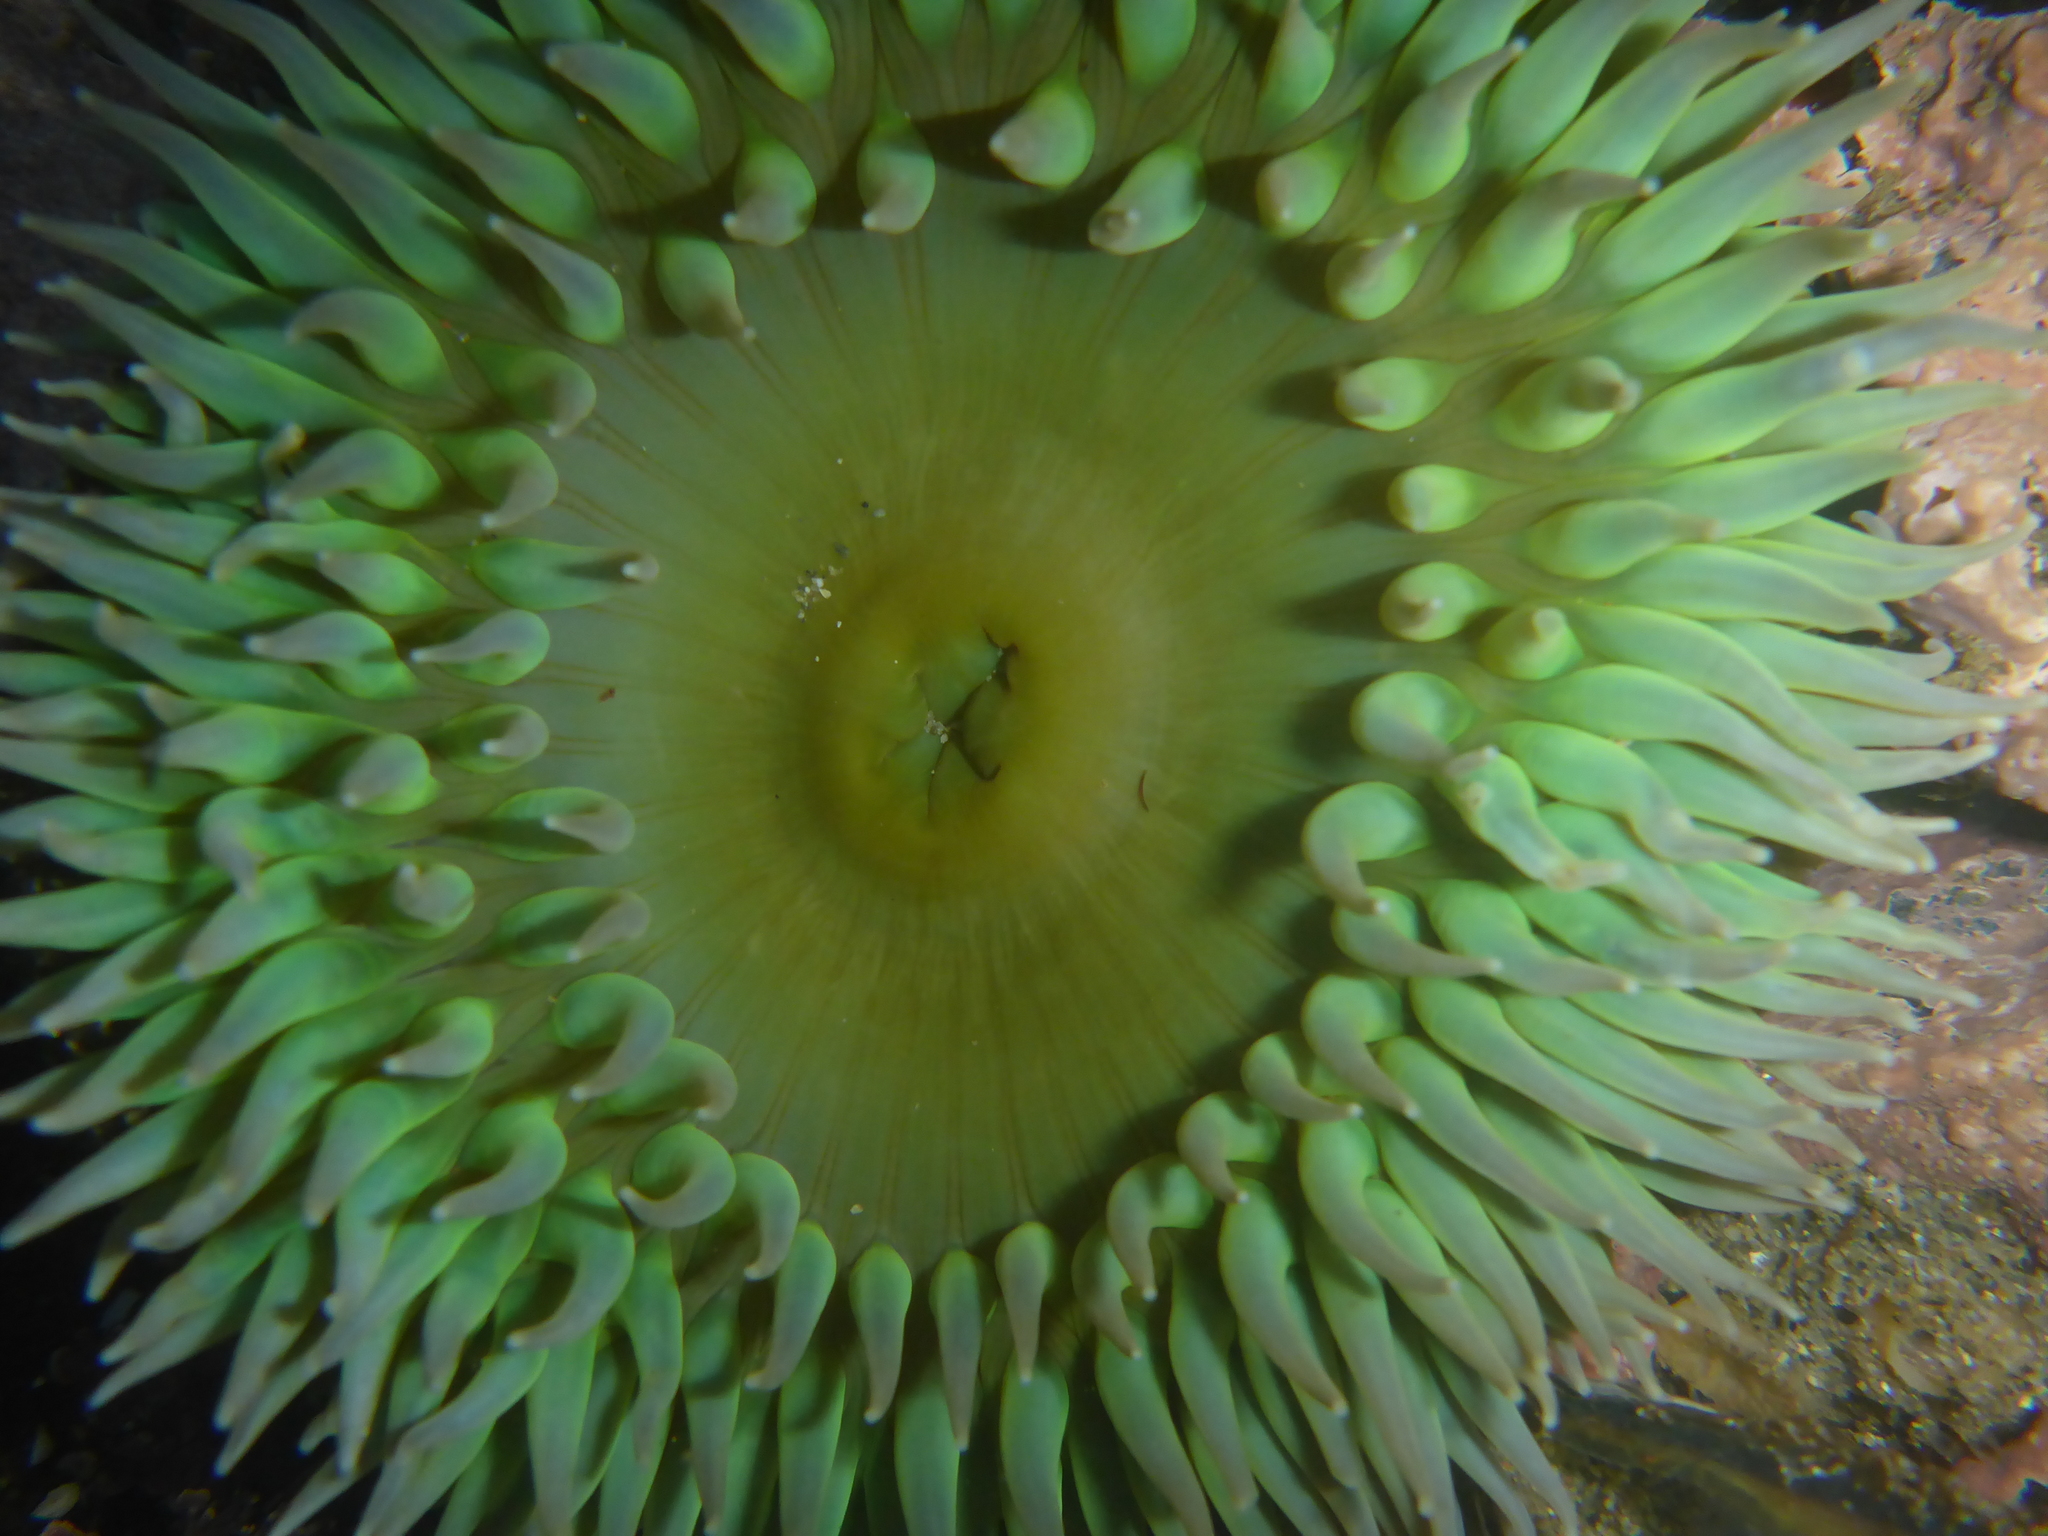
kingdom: Animalia
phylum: Cnidaria
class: Anthozoa
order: Actiniaria
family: Actiniidae
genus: Anthopleura
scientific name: Anthopleura xanthogrammica
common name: Giant green anemone
